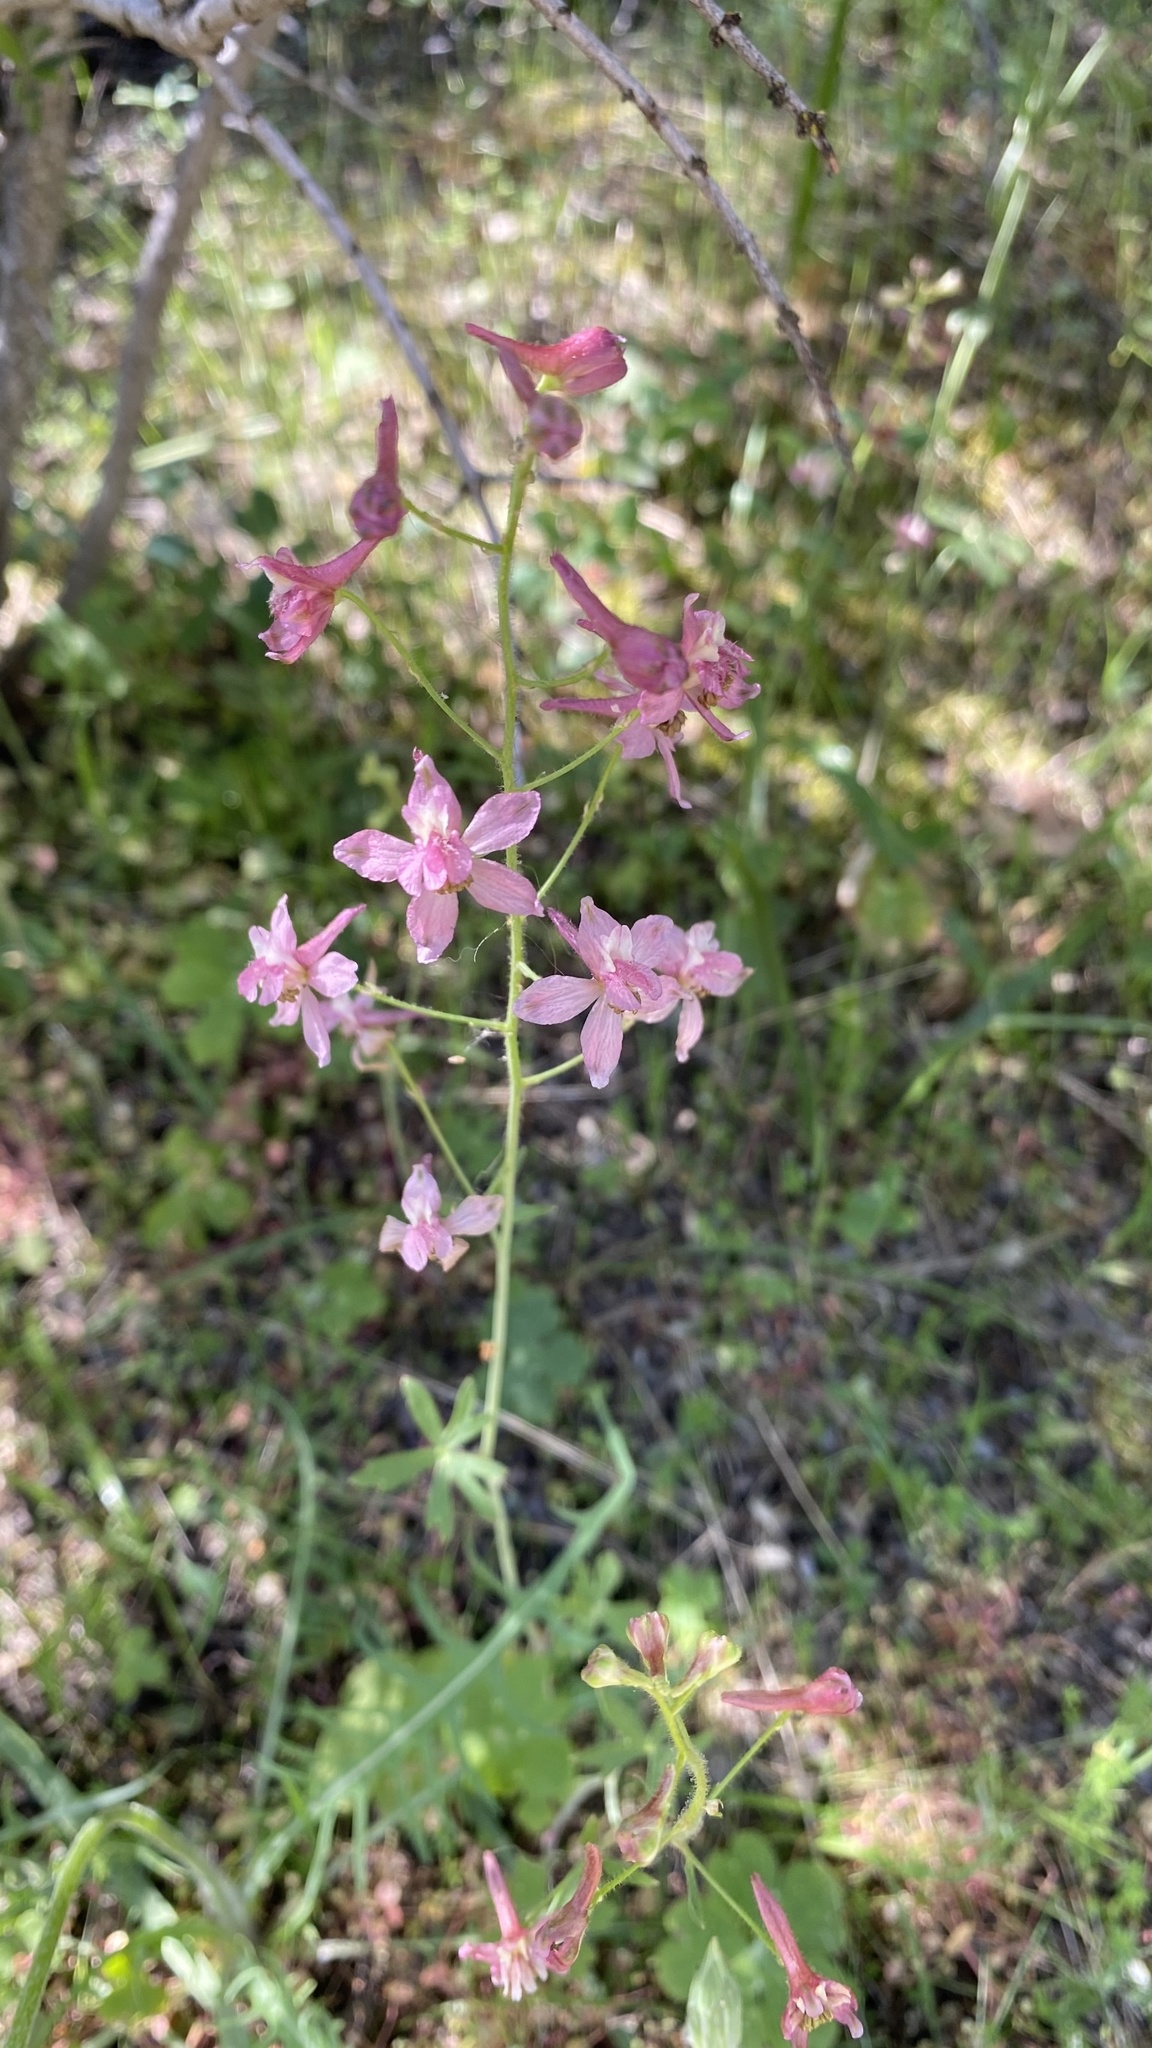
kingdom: Plantae
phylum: Tracheophyta
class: Magnoliopsida
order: Ranunculales
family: Ranunculaceae
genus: Delphinium
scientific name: Delphinium purpusii
